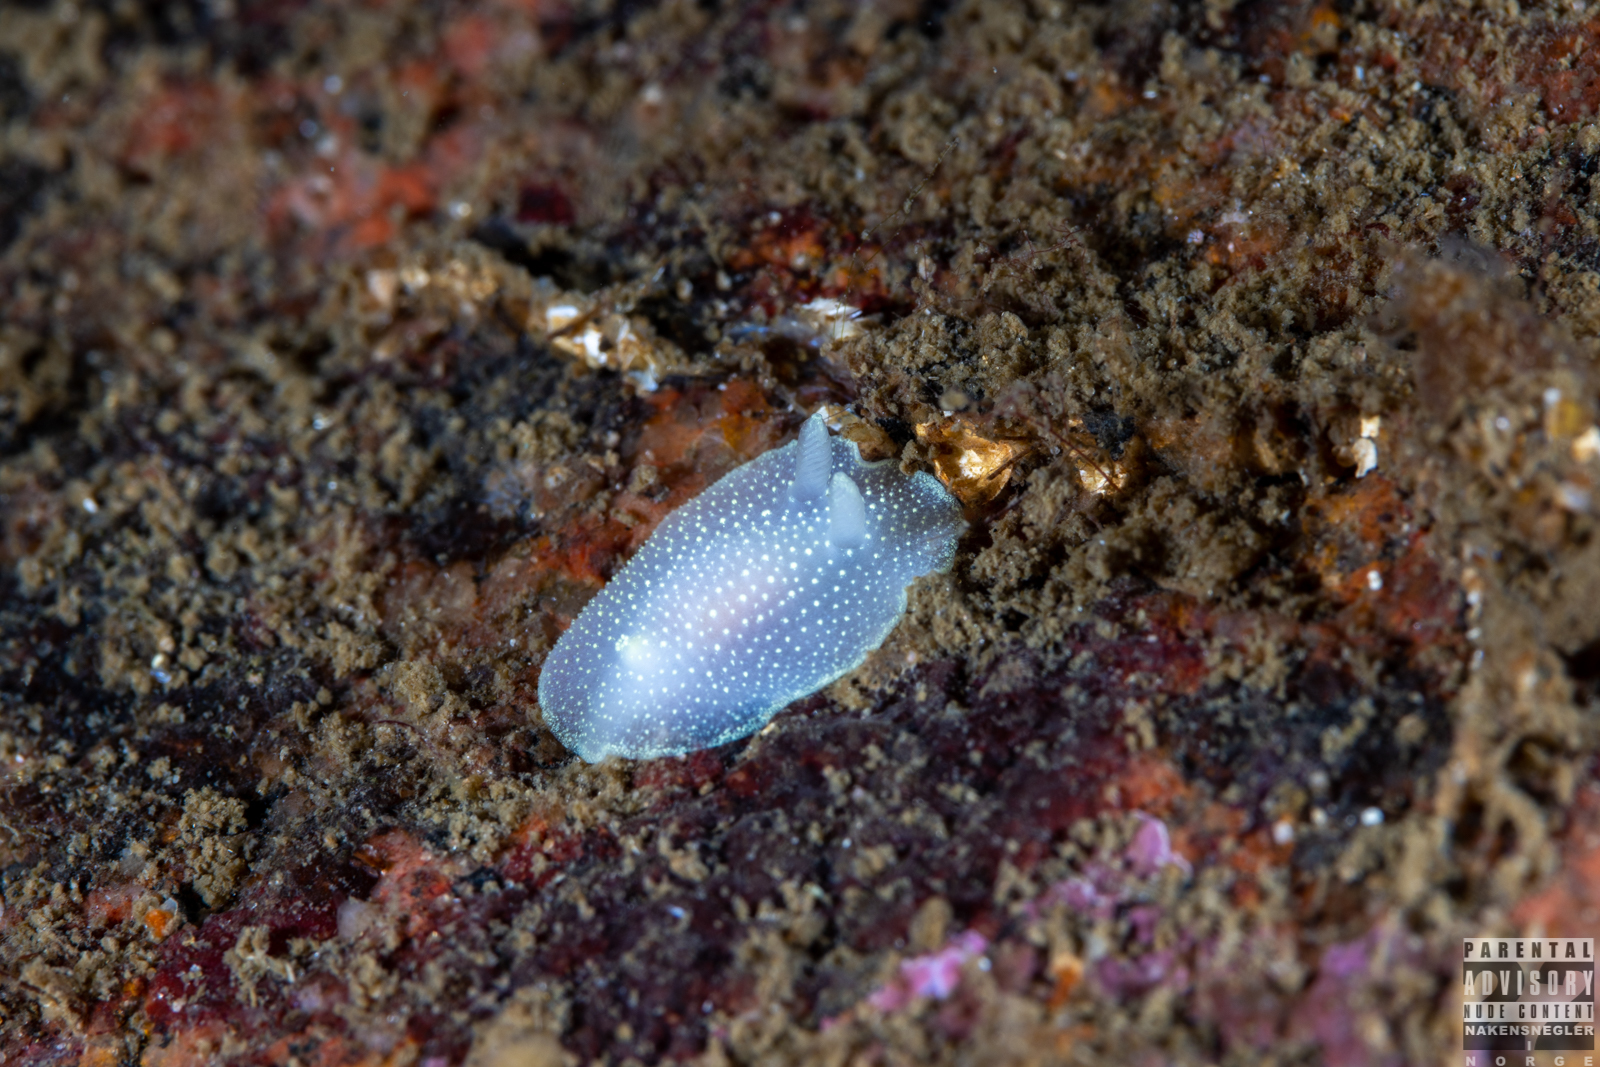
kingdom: Animalia
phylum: Mollusca
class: Gastropoda
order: Nudibranchia
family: Cadlinidae
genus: Cadlina
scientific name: Cadlina laevis
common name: White atlantic cadlina
